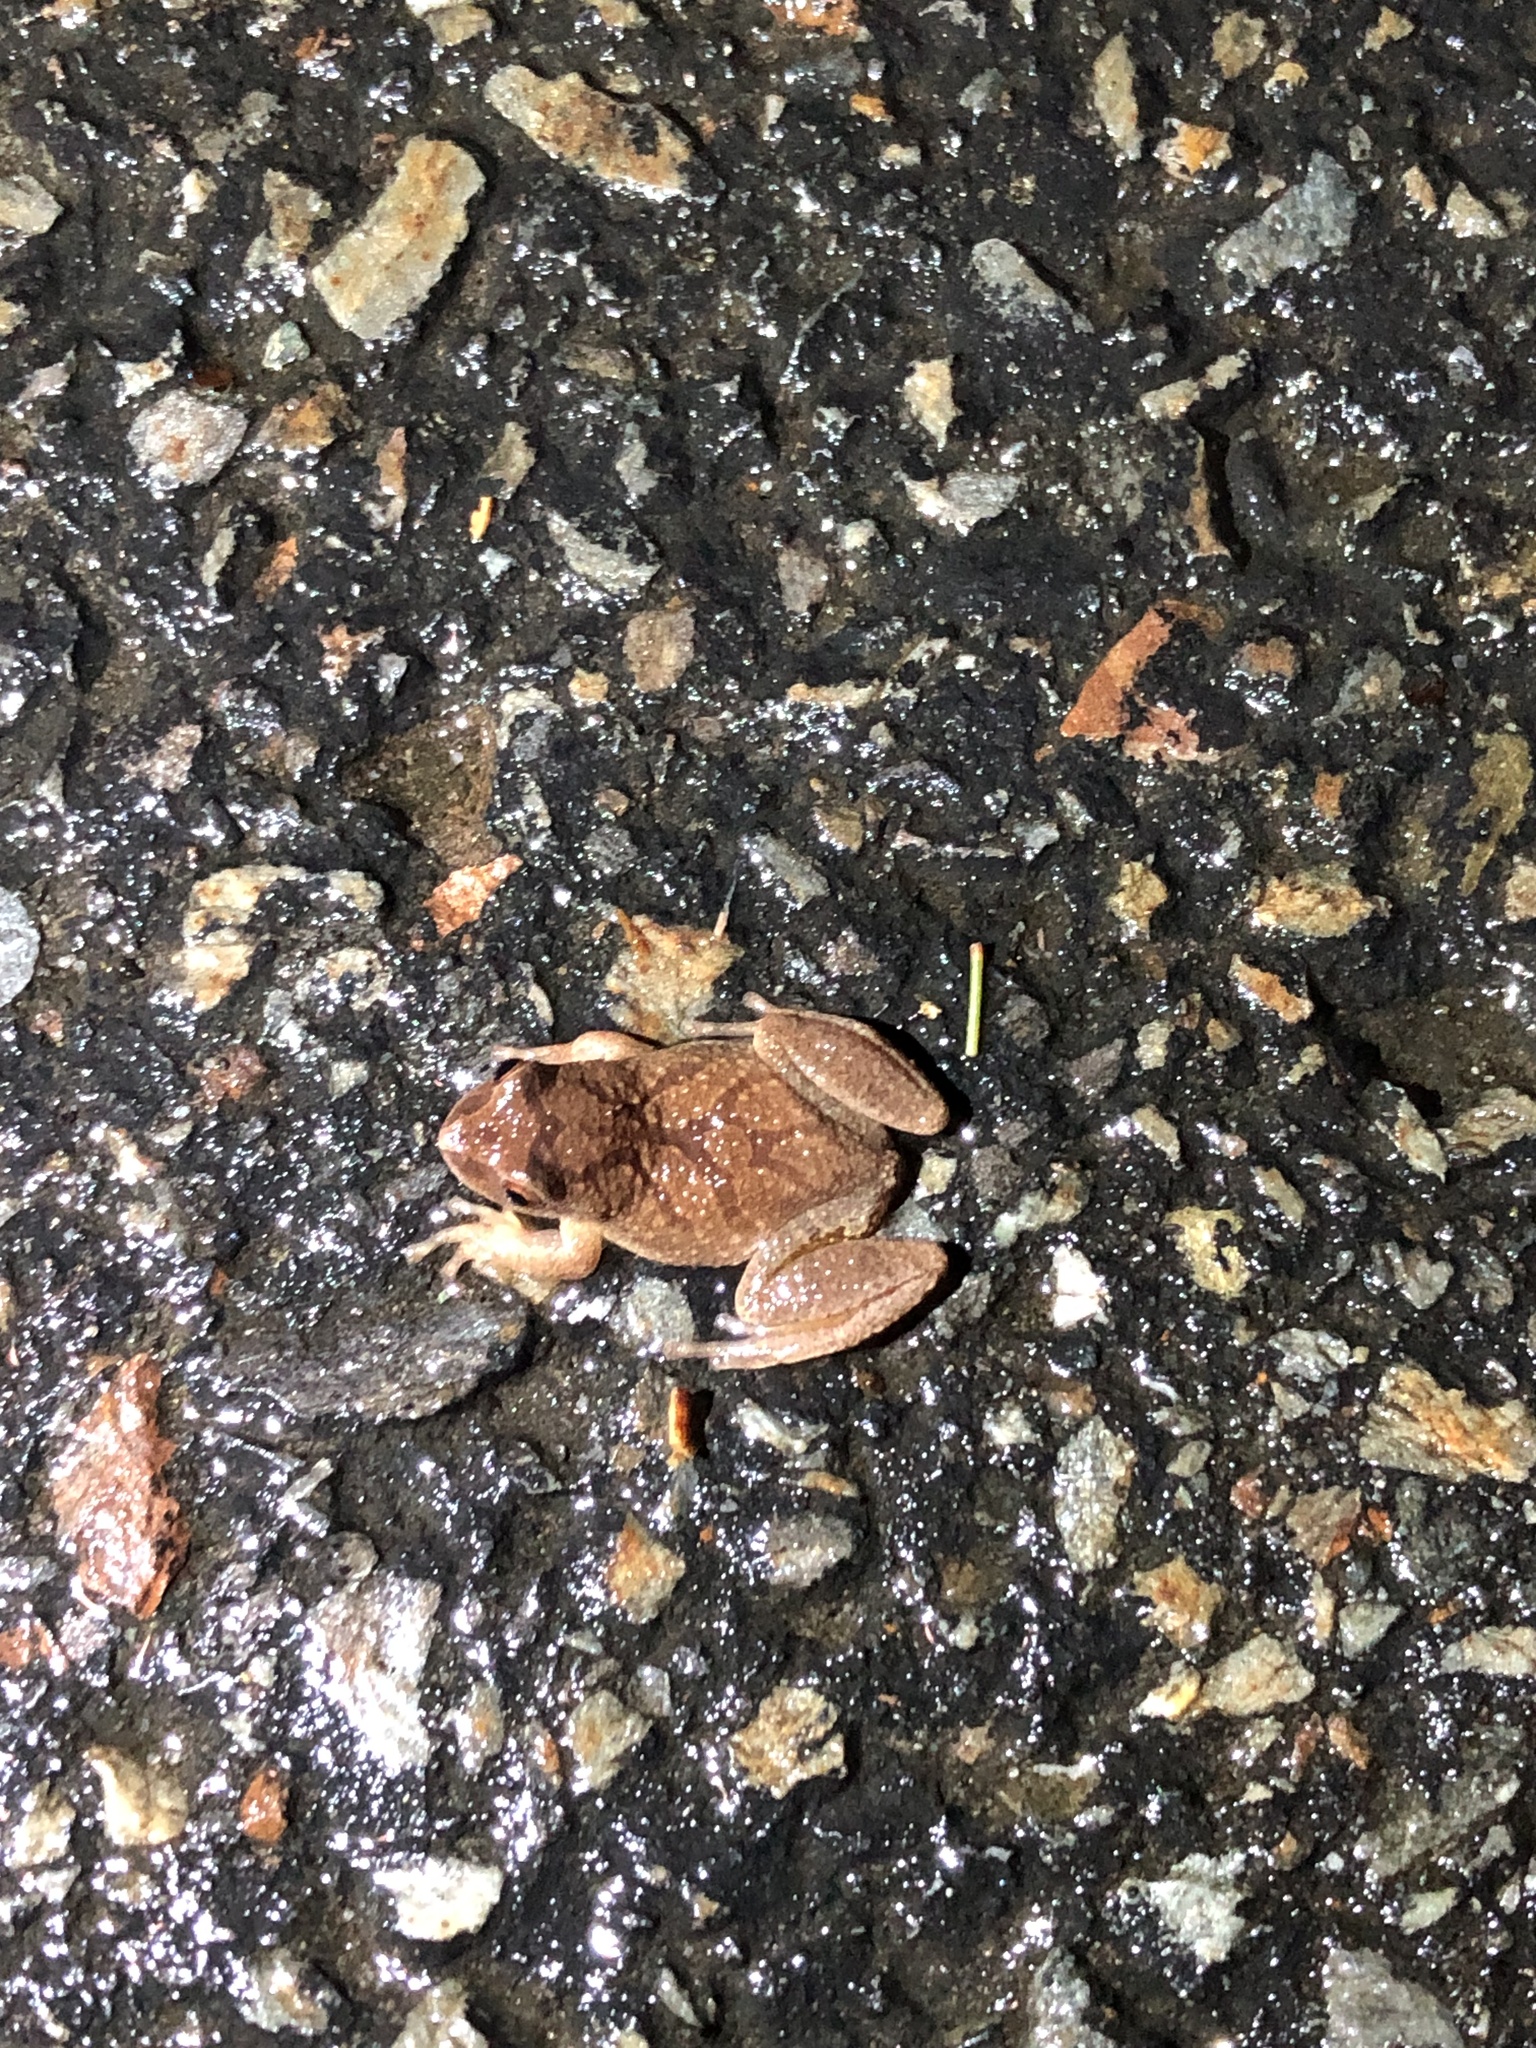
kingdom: Animalia
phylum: Chordata
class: Amphibia
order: Anura
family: Hylidae
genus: Pseudacris
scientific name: Pseudacris crucifer
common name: Spring peeper
